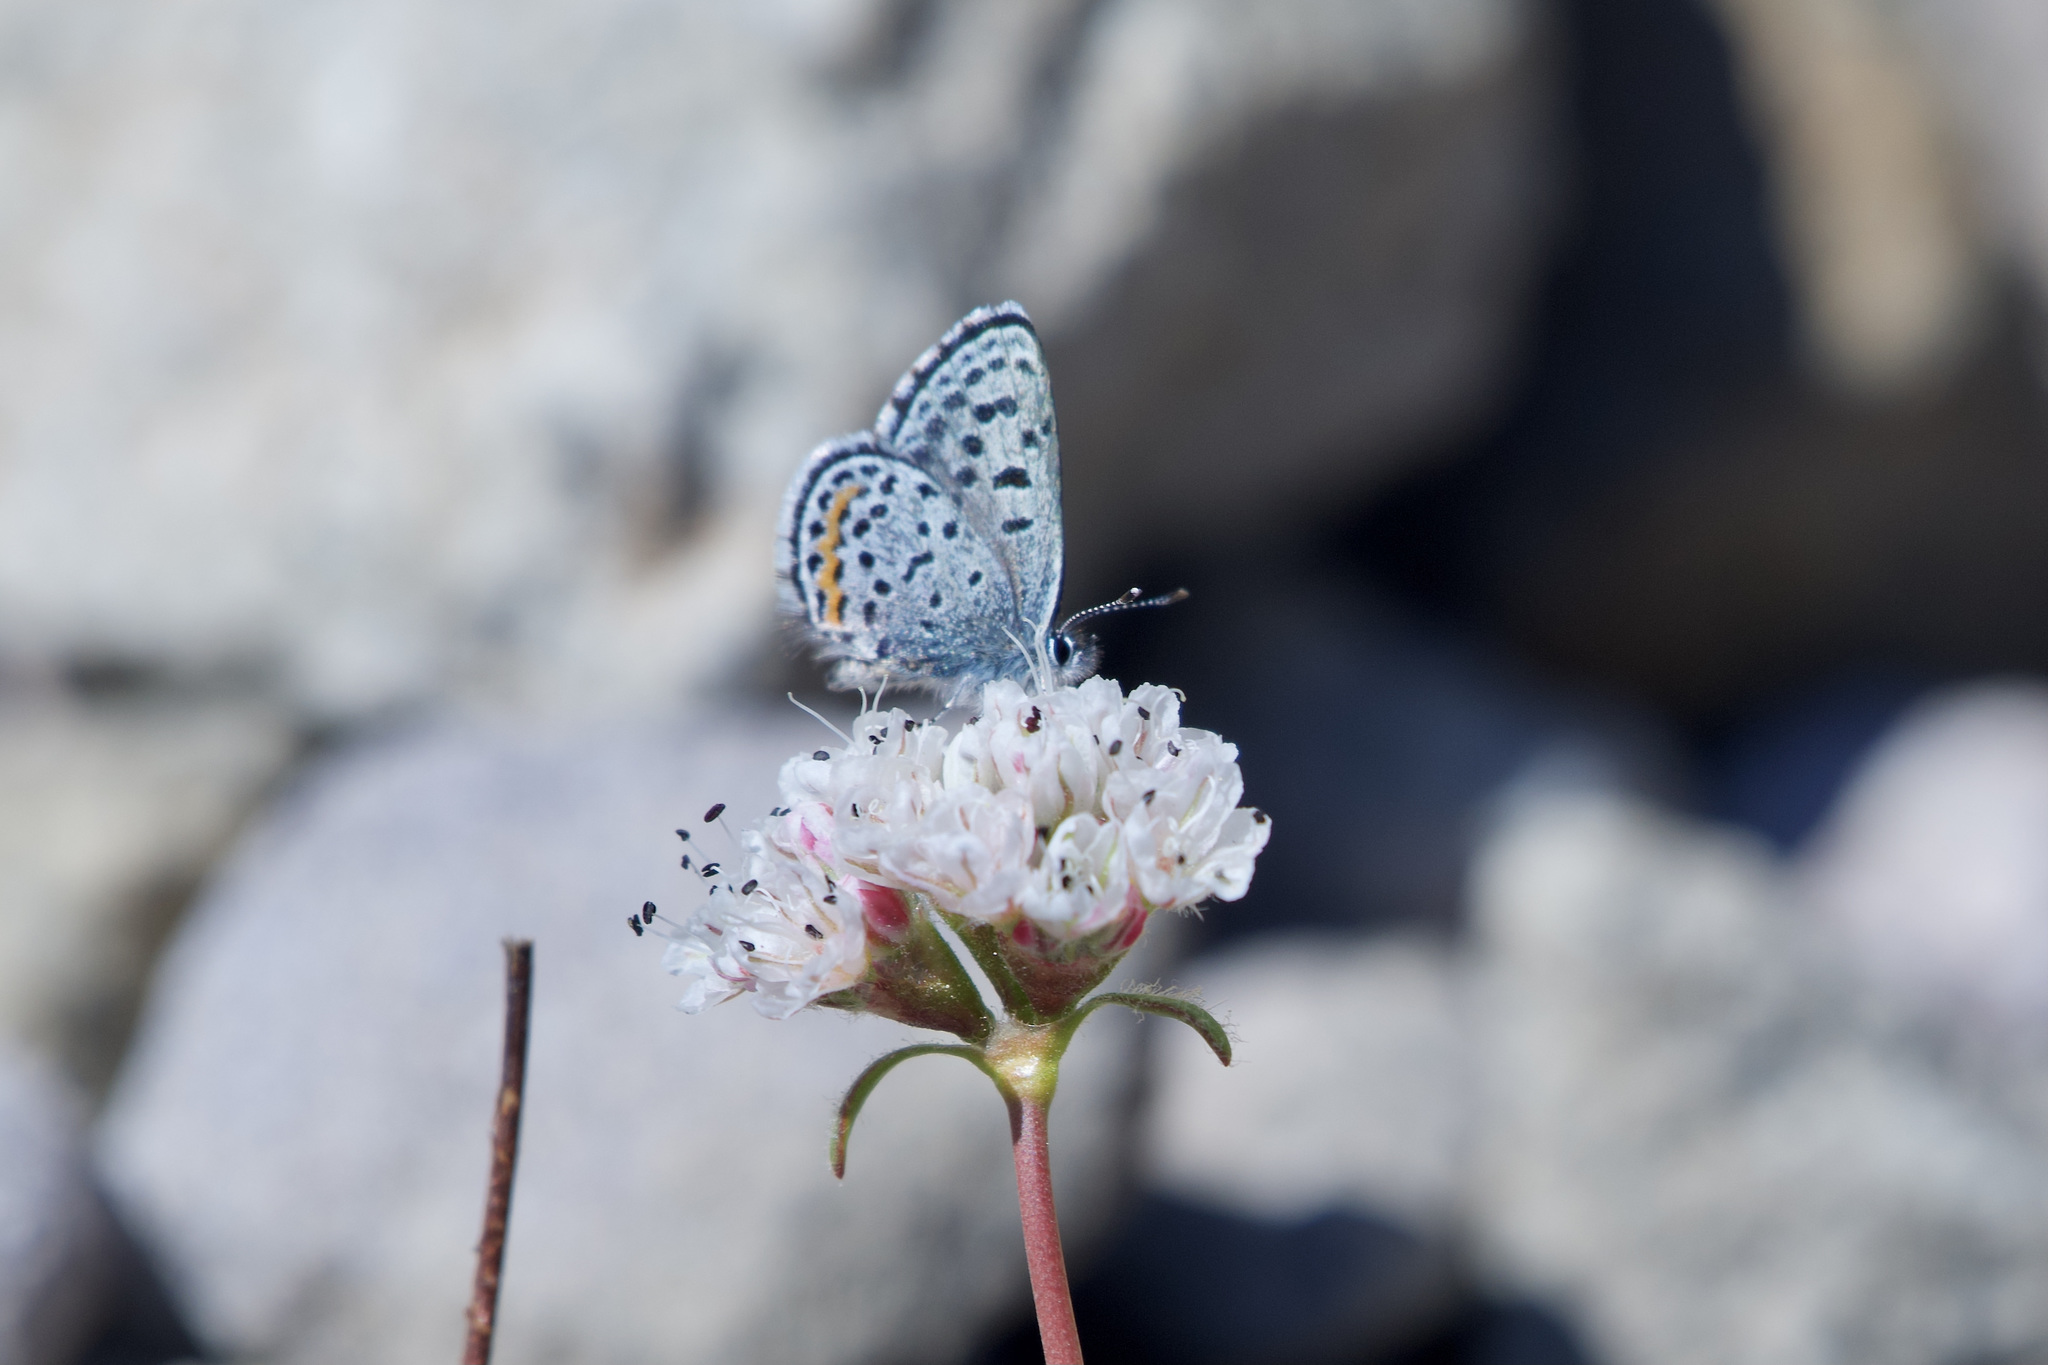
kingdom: Animalia
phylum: Arthropoda
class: Insecta
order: Lepidoptera
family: Lycaenidae
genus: Euphilotes
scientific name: Euphilotes battoides
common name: Square-spotted blue
